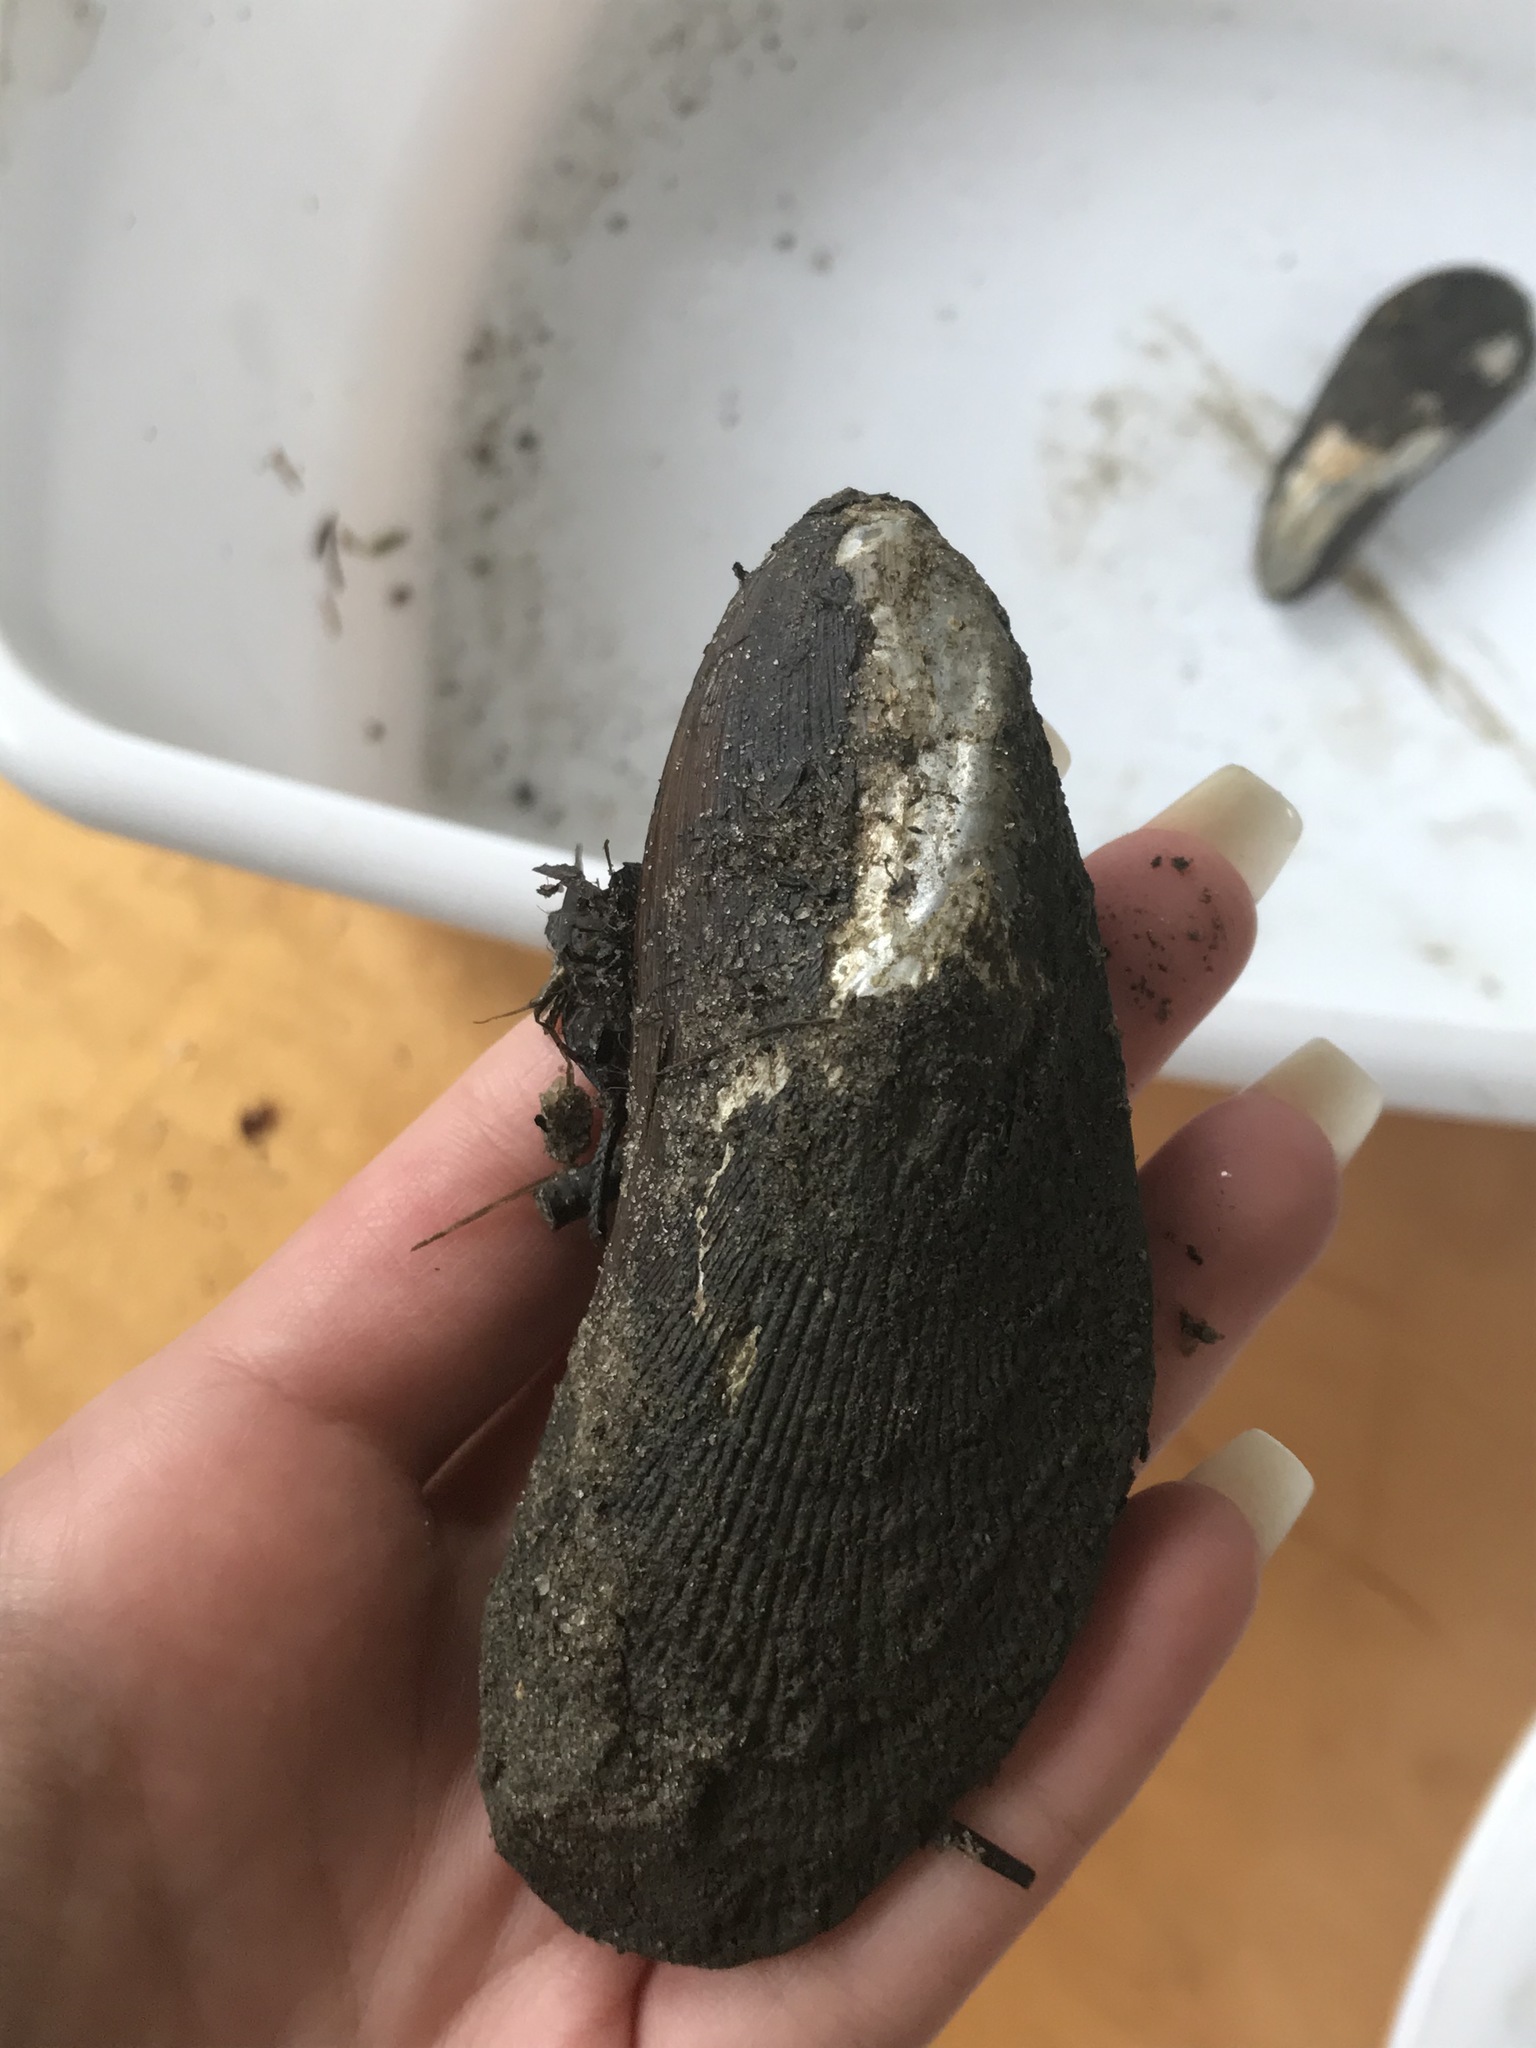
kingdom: Animalia
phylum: Mollusca
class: Bivalvia
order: Mytilida
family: Mytilidae
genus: Geukensia
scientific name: Geukensia demissa
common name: Ribbed mussel
